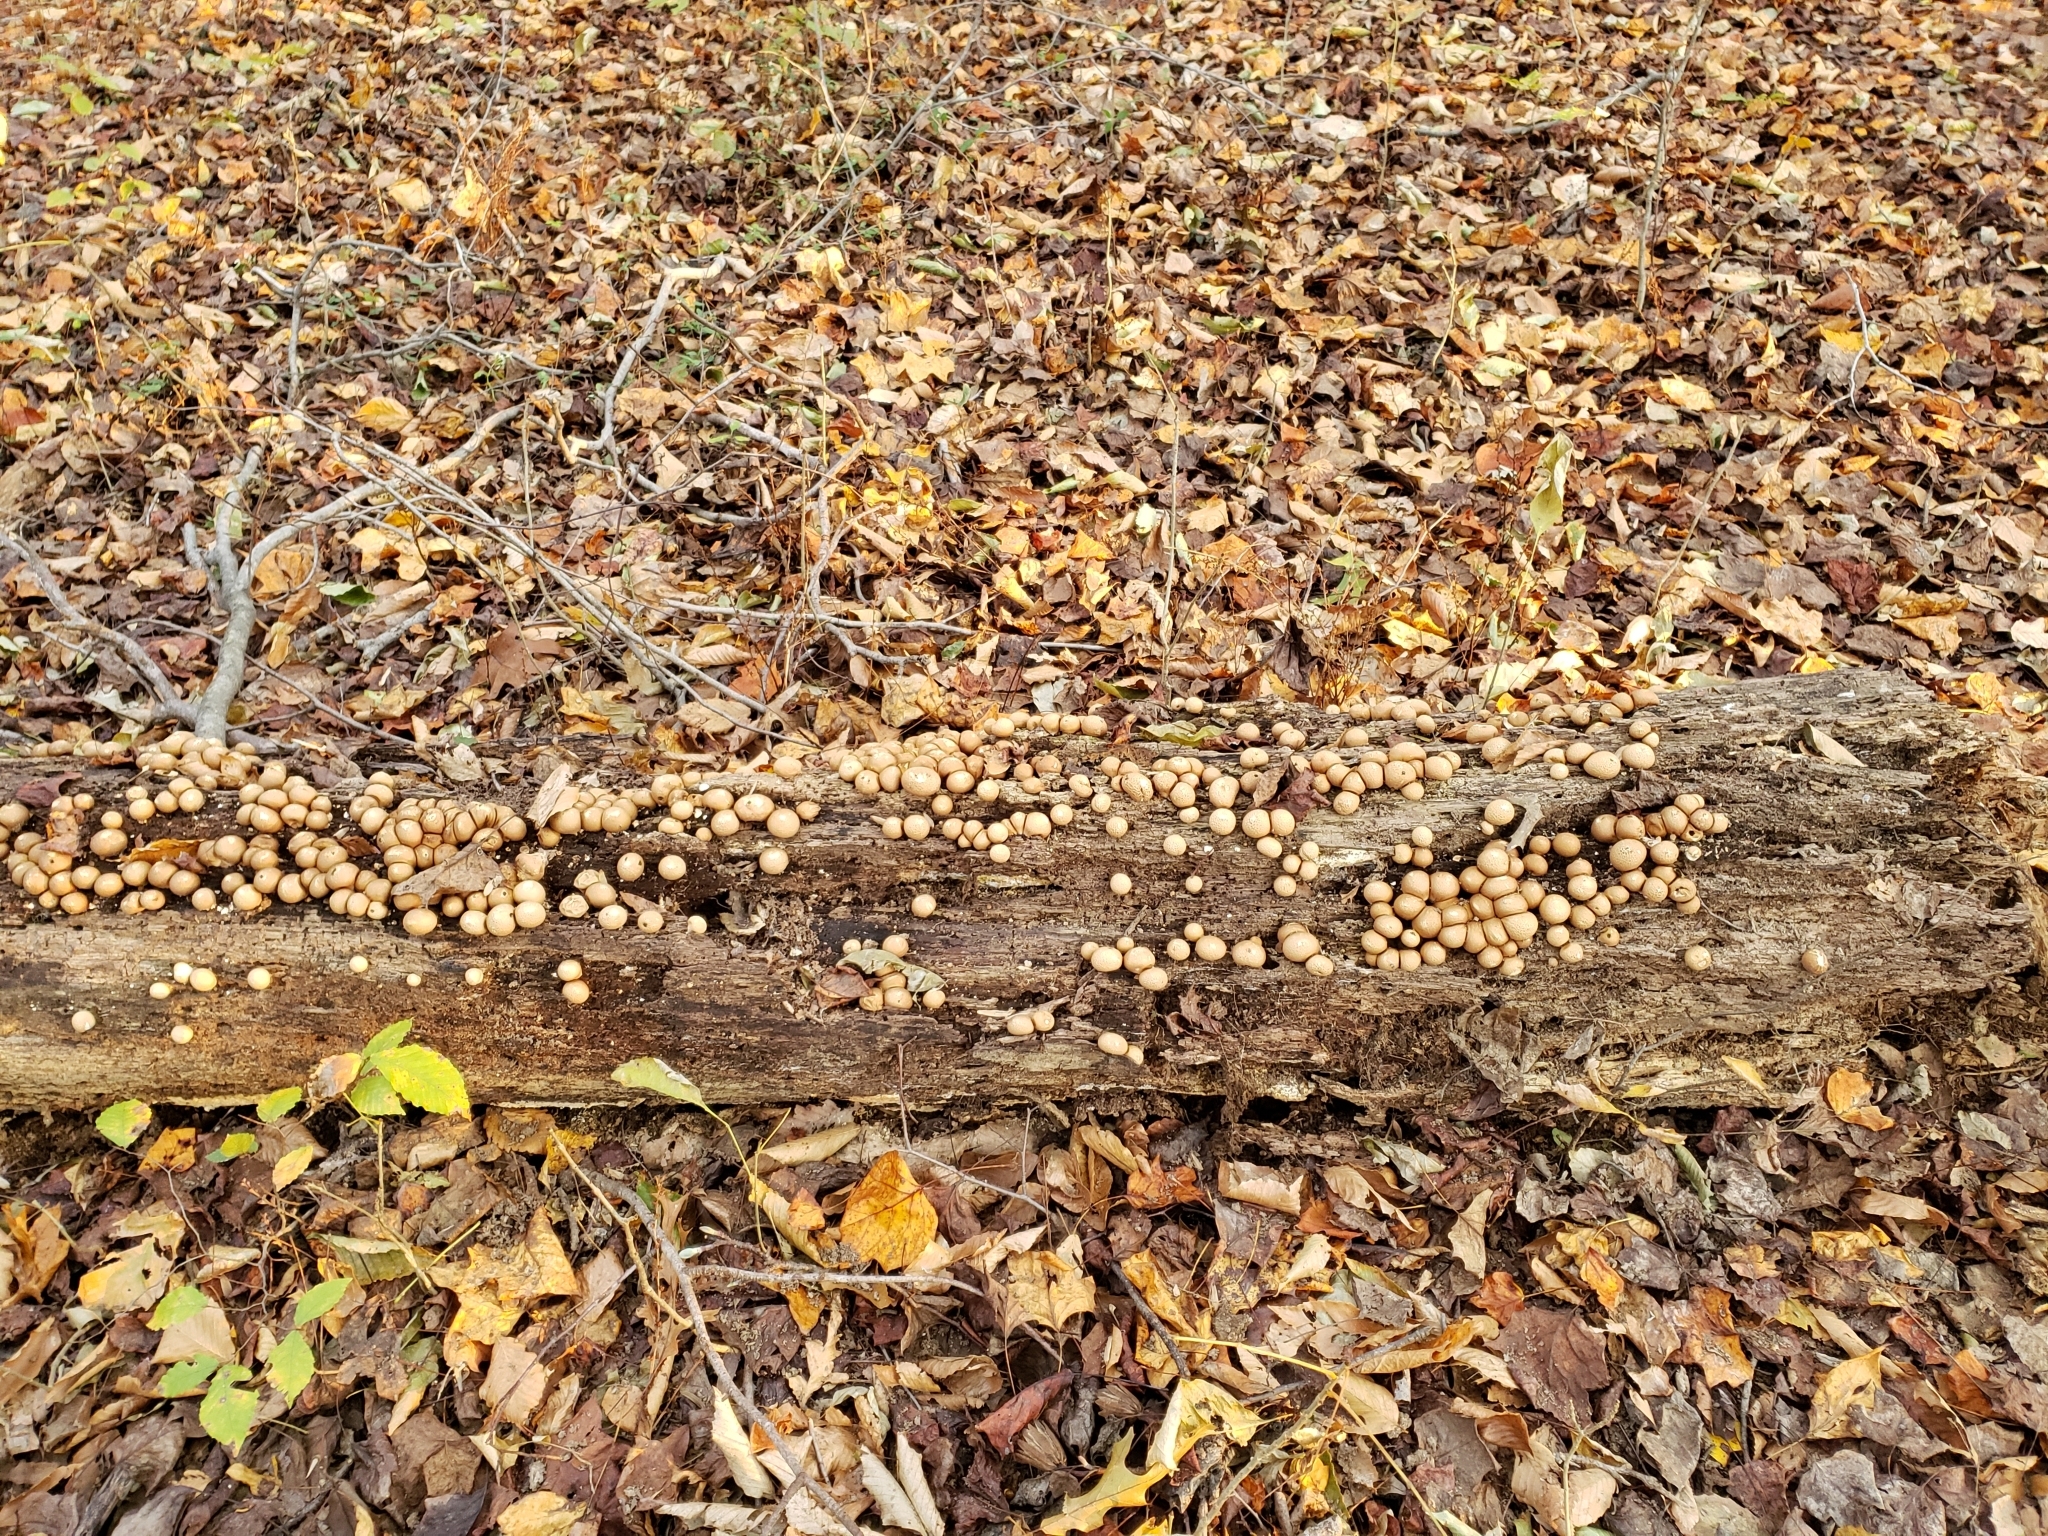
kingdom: Fungi
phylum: Basidiomycota
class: Agaricomycetes
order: Agaricales
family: Lycoperdaceae
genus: Apioperdon
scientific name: Apioperdon pyriforme
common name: Pear-shaped puffball
